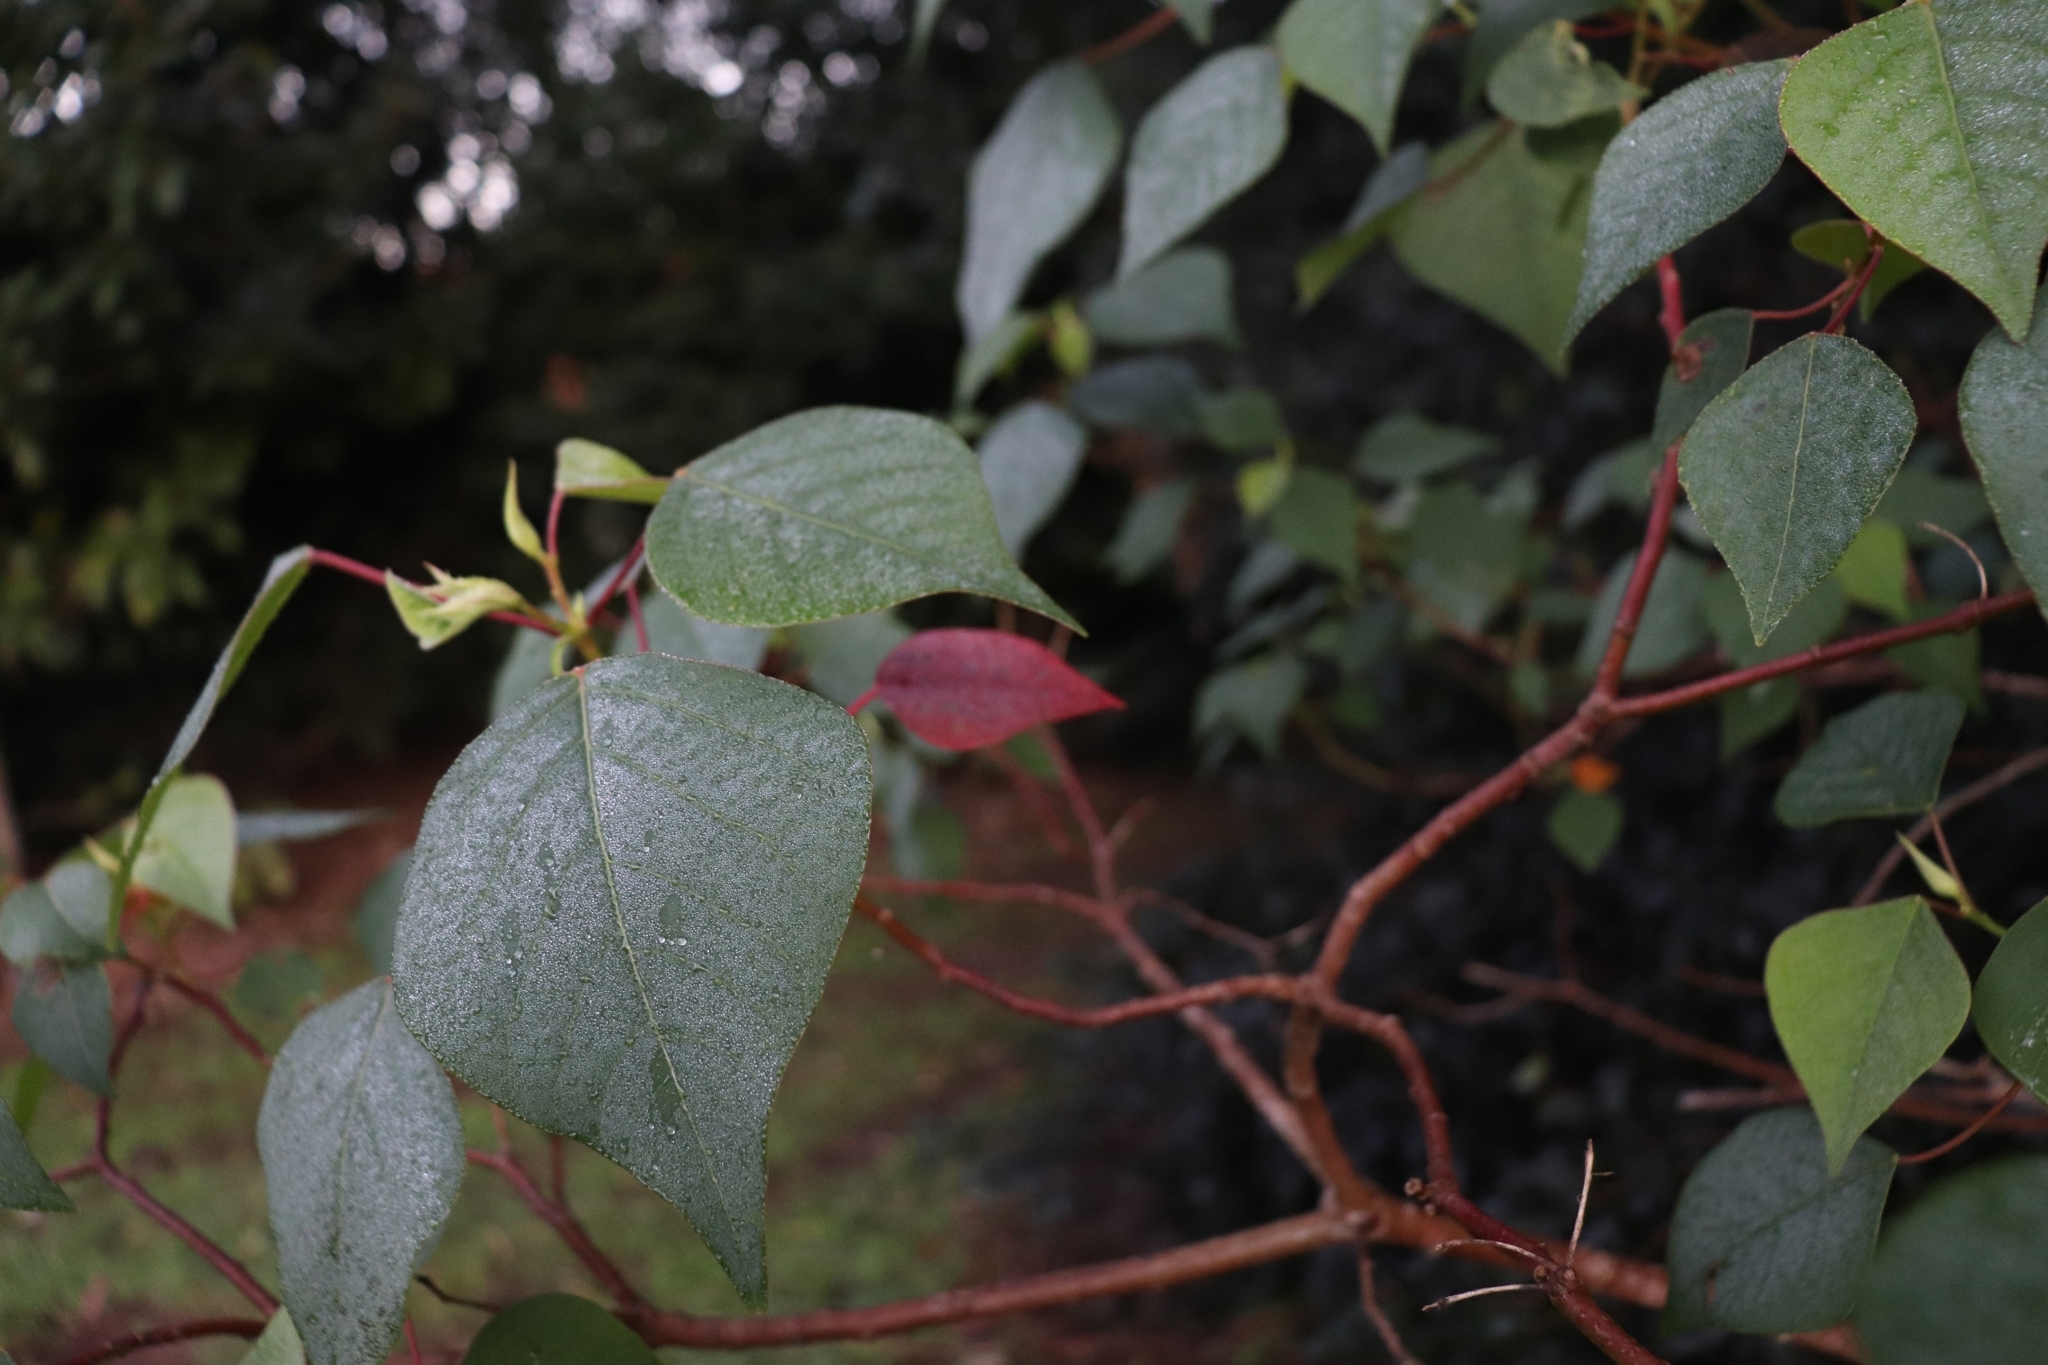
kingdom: Plantae
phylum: Tracheophyta
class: Magnoliopsida
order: Malpighiales
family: Euphorbiaceae
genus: Homalanthus
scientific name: Homalanthus populifolius
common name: Queensland poplar
